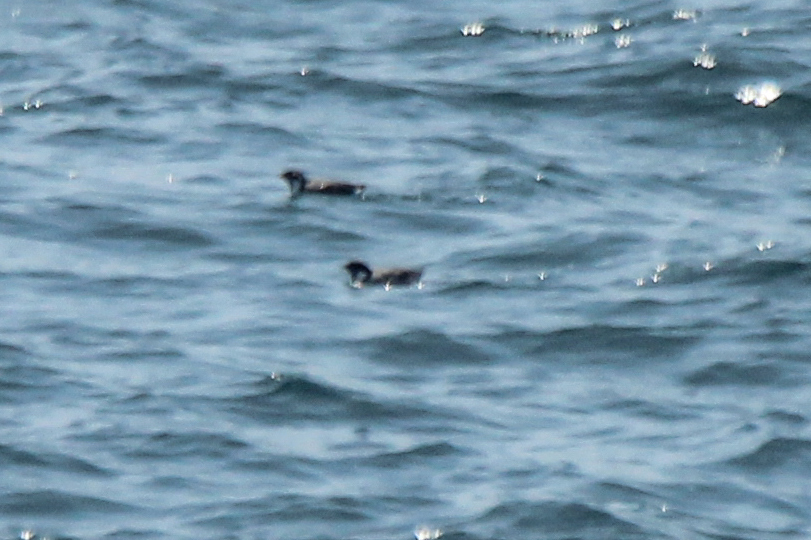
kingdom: Animalia
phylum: Chordata
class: Aves
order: Charadriiformes
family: Alcidae
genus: Synthliboramphus
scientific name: Synthliboramphus antiquus
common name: Ancient murrelet
